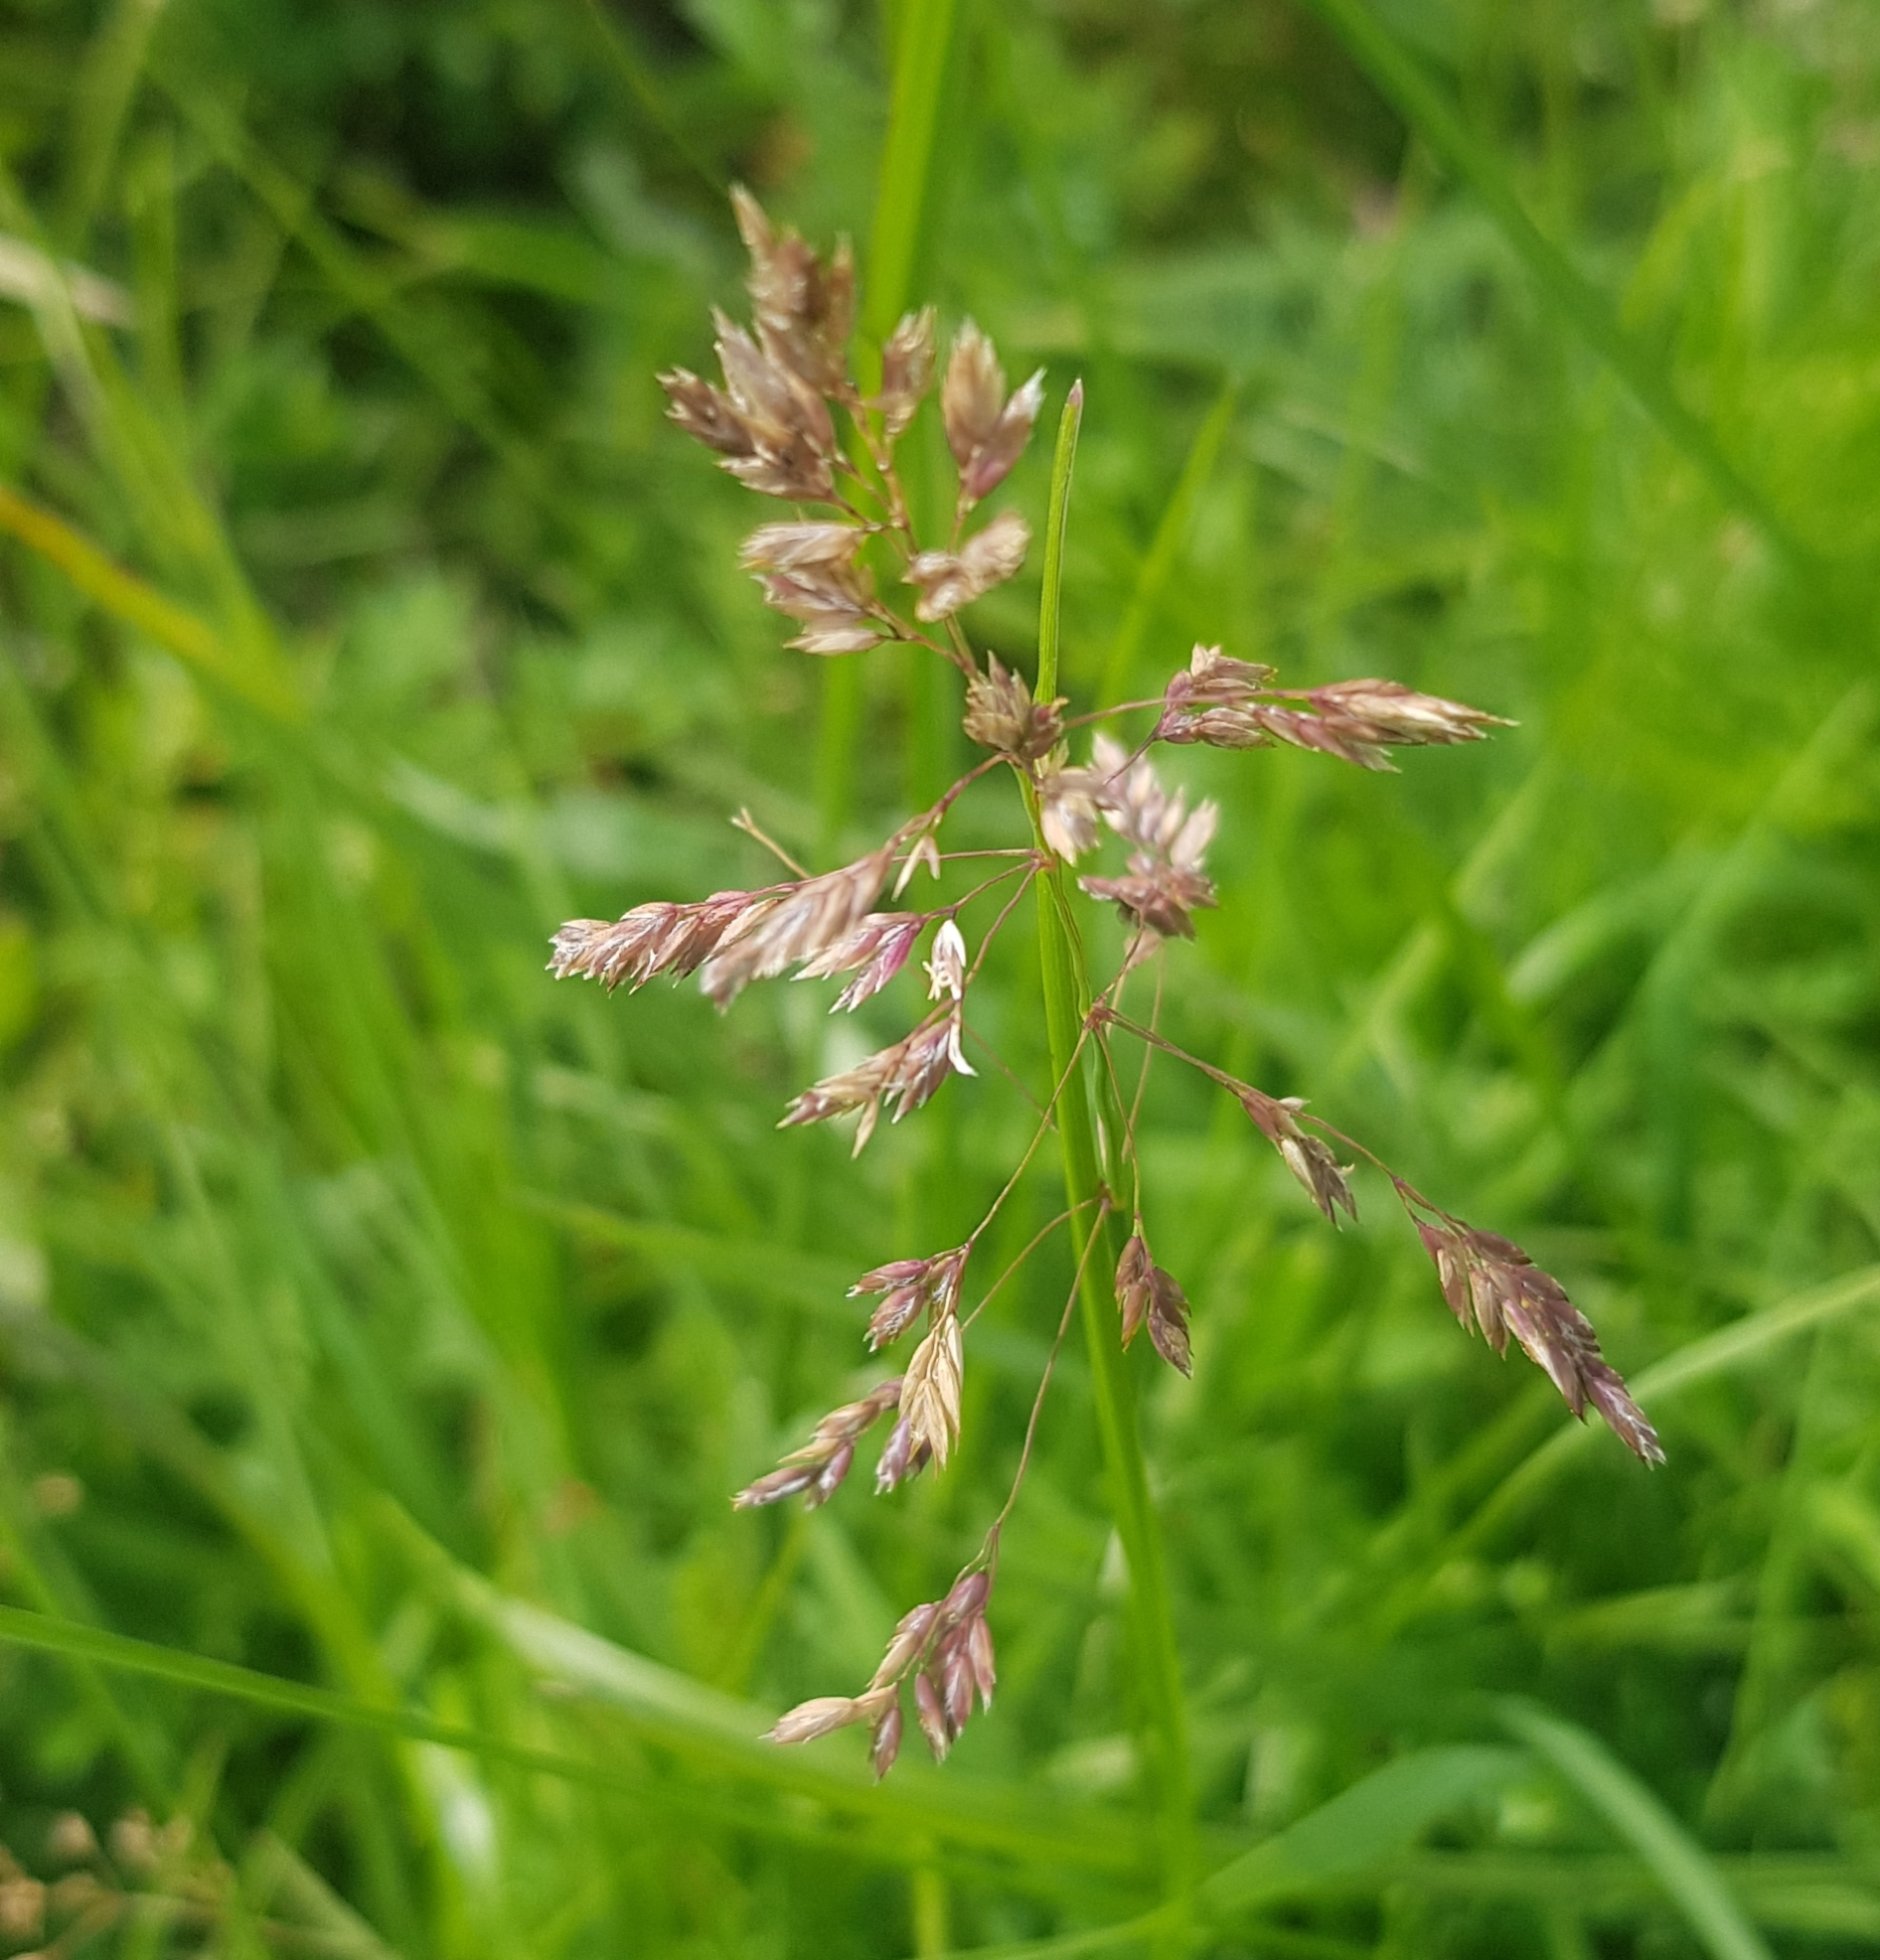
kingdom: Plantae
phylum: Tracheophyta
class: Liliopsida
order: Poales
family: Poaceae
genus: Poa
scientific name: Poa pratensis
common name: Kentucky bluegrass
